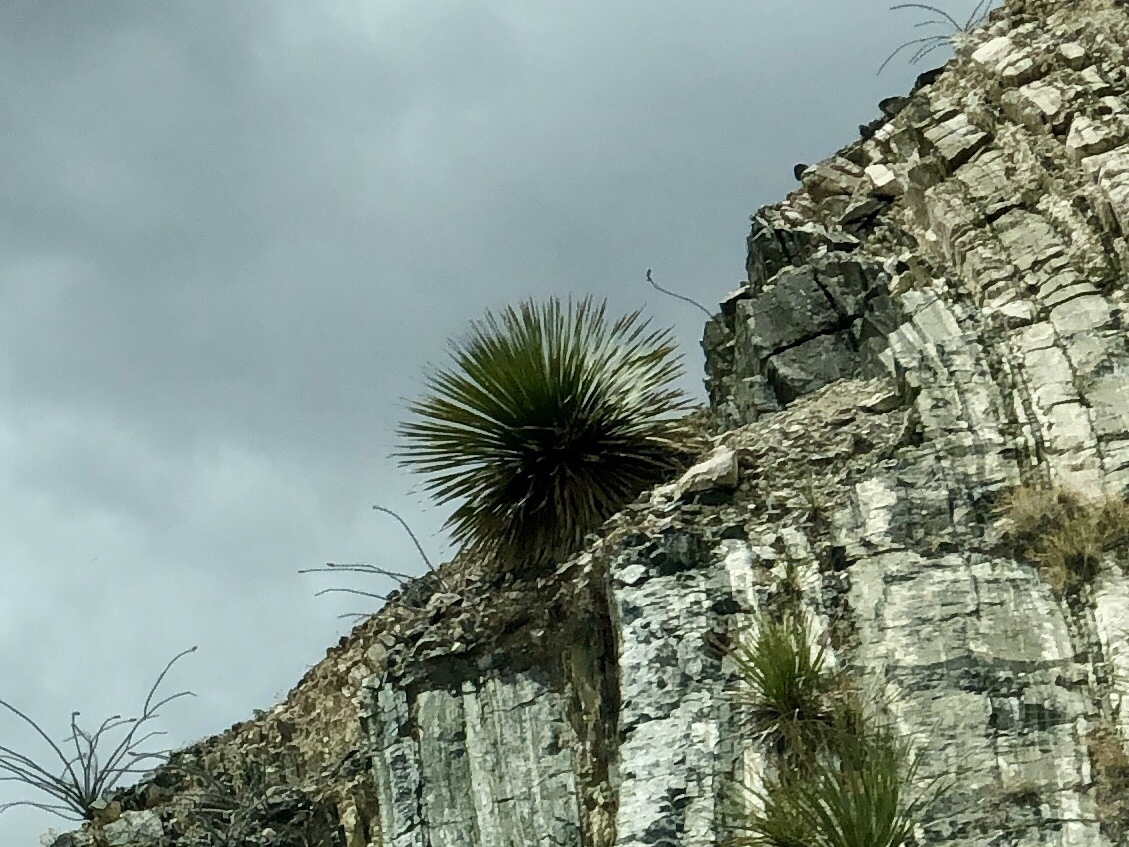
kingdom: Plantae
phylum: Tracheophyta
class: Liliopsida
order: Asparagales
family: Asparagaceae
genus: Dasylirion
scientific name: Dasylirion wheeleri
